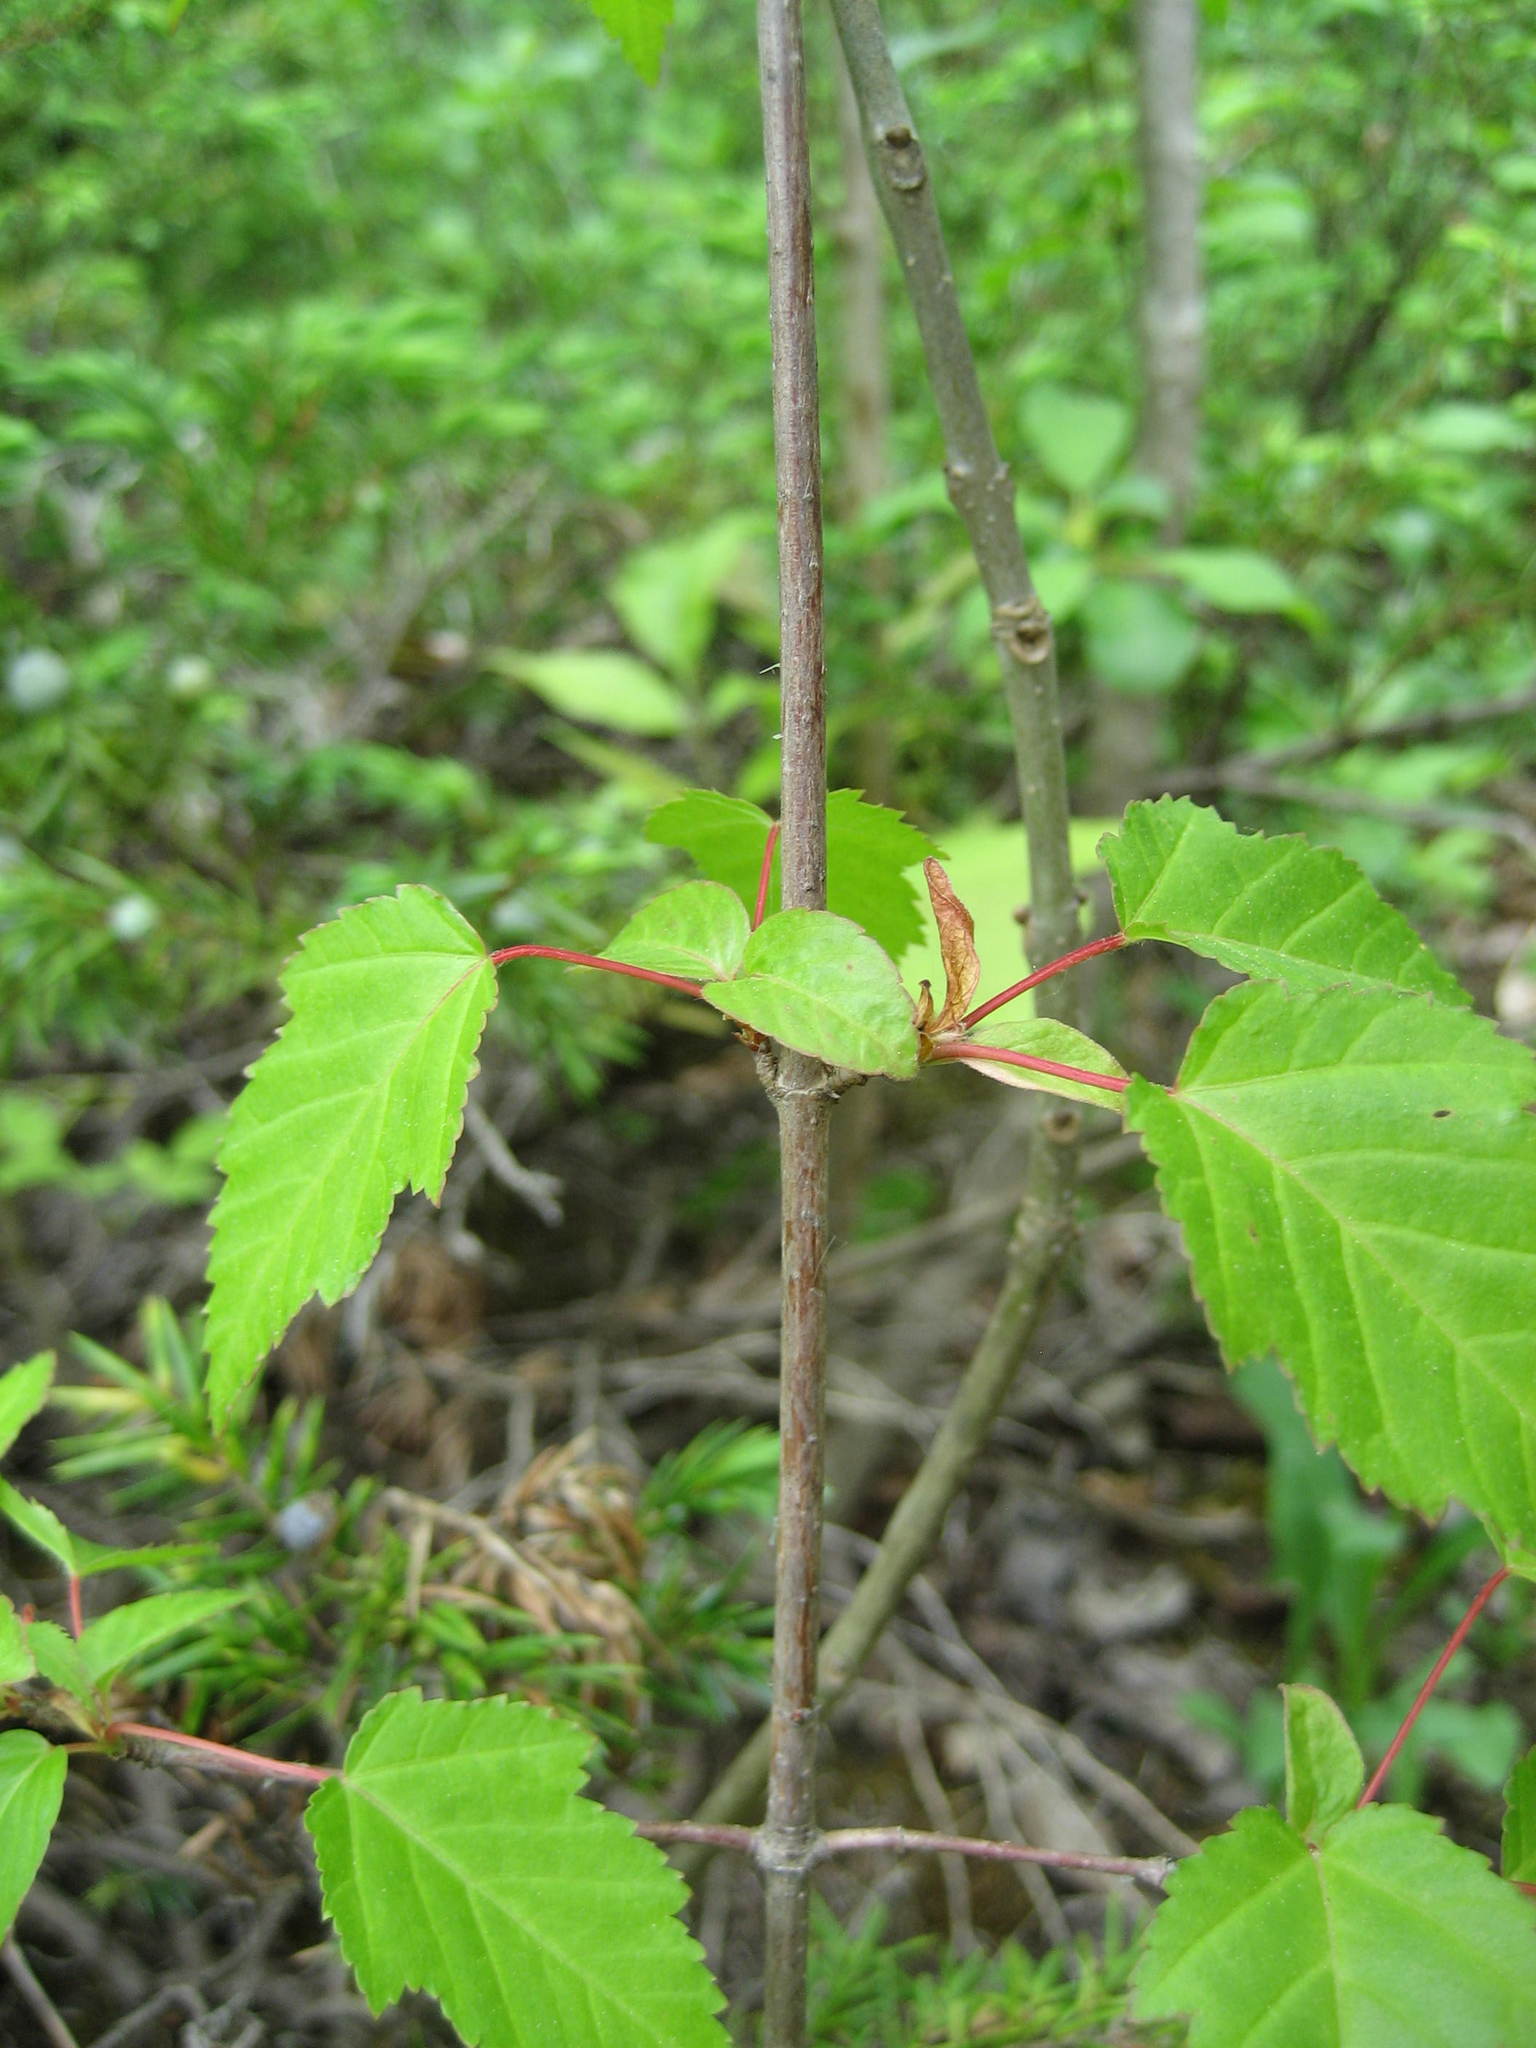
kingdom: Plantae
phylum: Tracheophyta
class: Magnoliopsida
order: Sapindales
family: Sapindaceae
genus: Acer
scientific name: Acer tataricum
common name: Tartar maple
